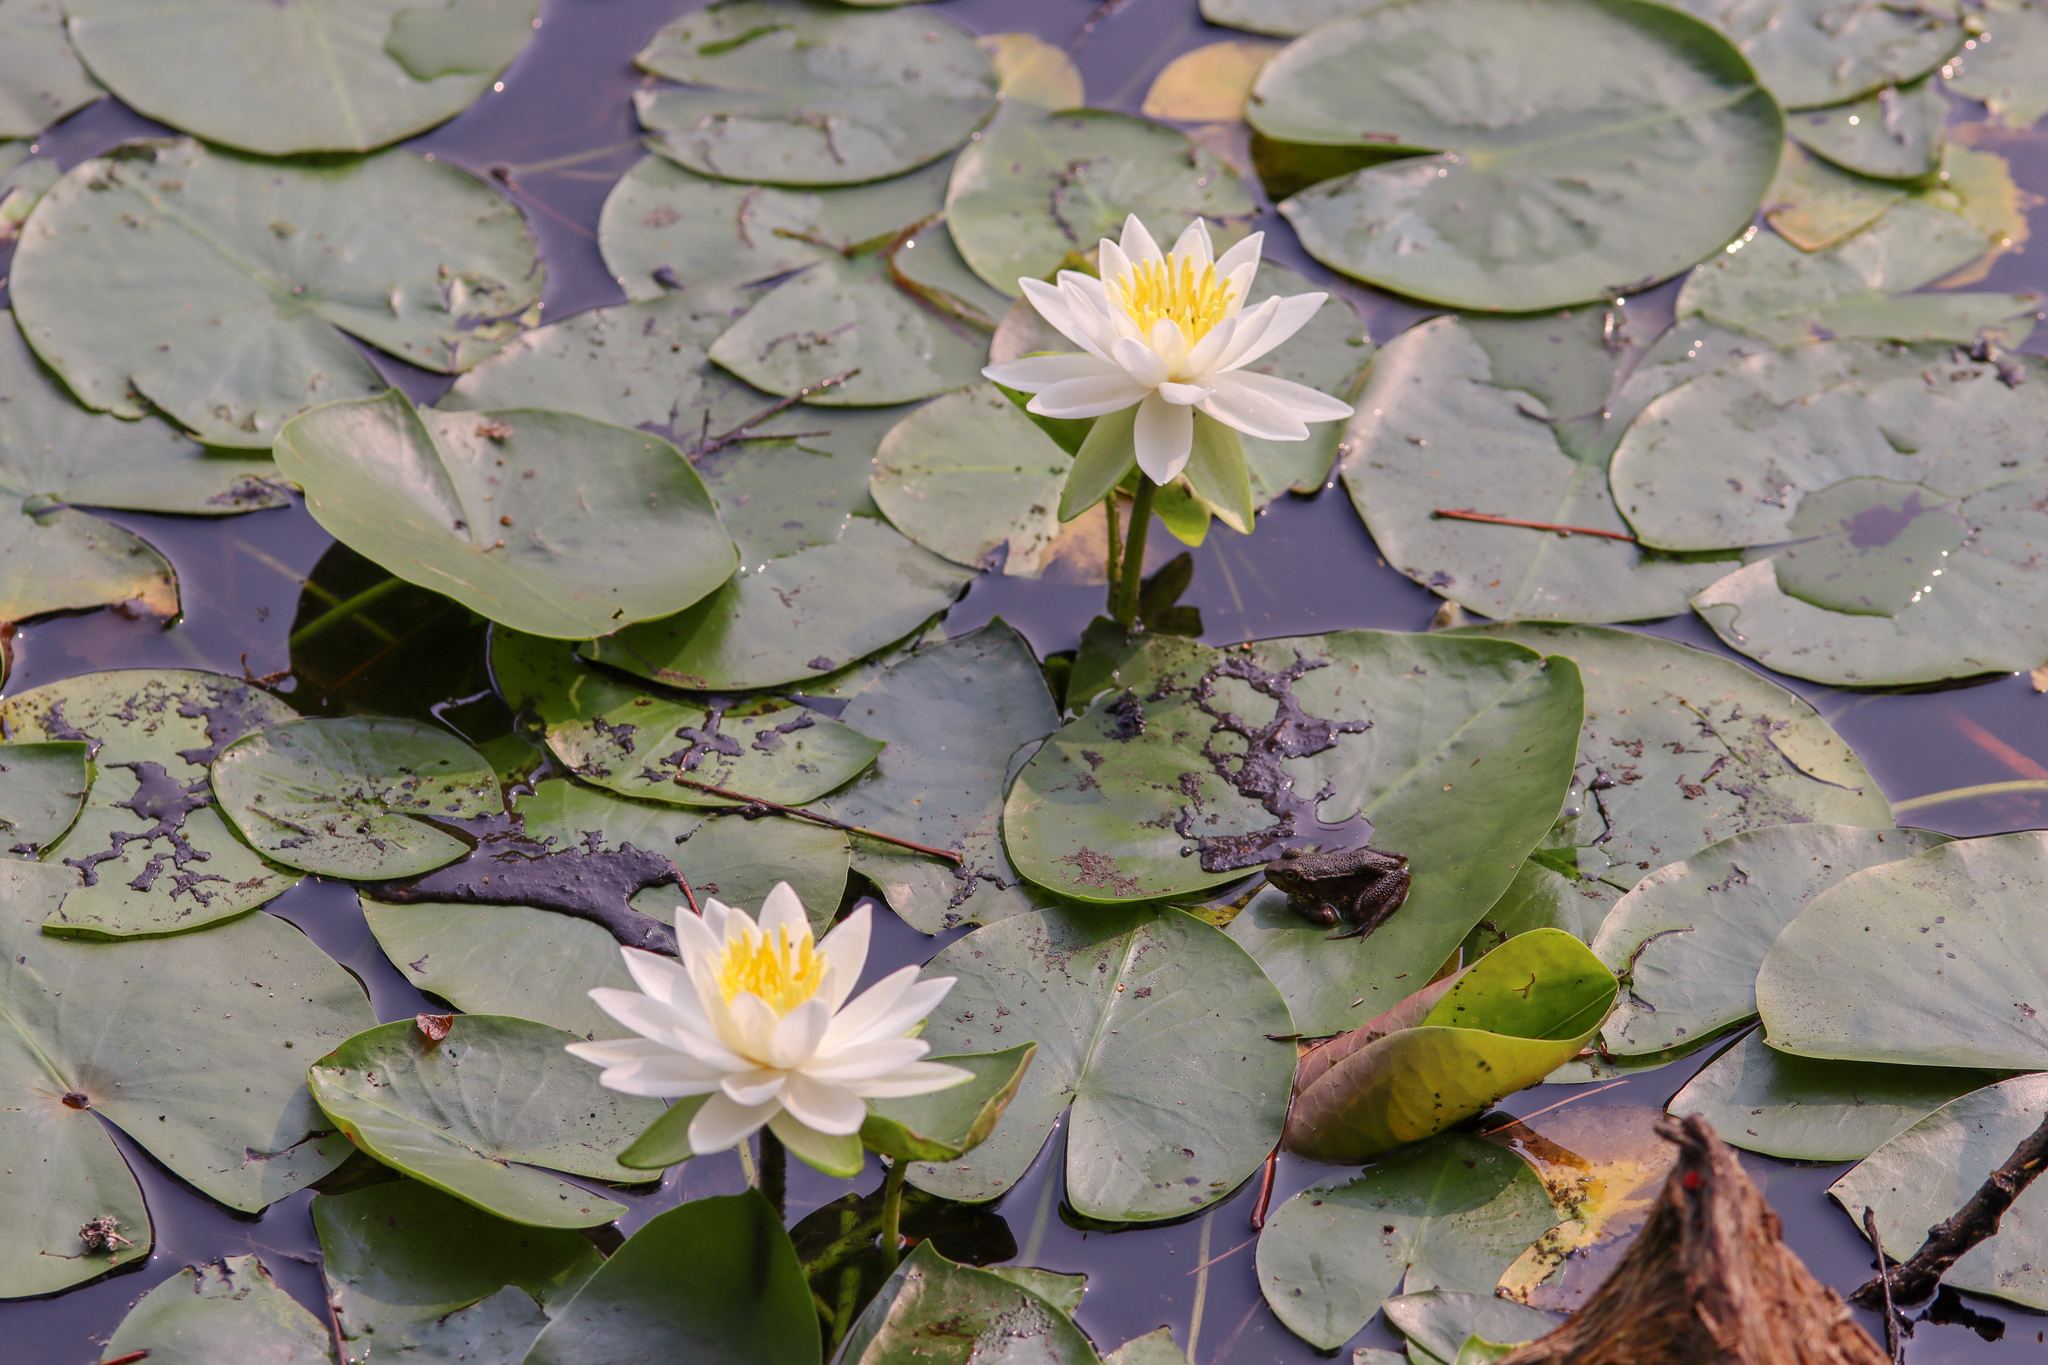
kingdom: Plantae
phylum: Tracheophyta
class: Magnoliopsida
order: Nymphaeales
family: Nymphaeaceae
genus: Nymphaea
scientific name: Nymphaea odorata
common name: Fragrant water-lily
